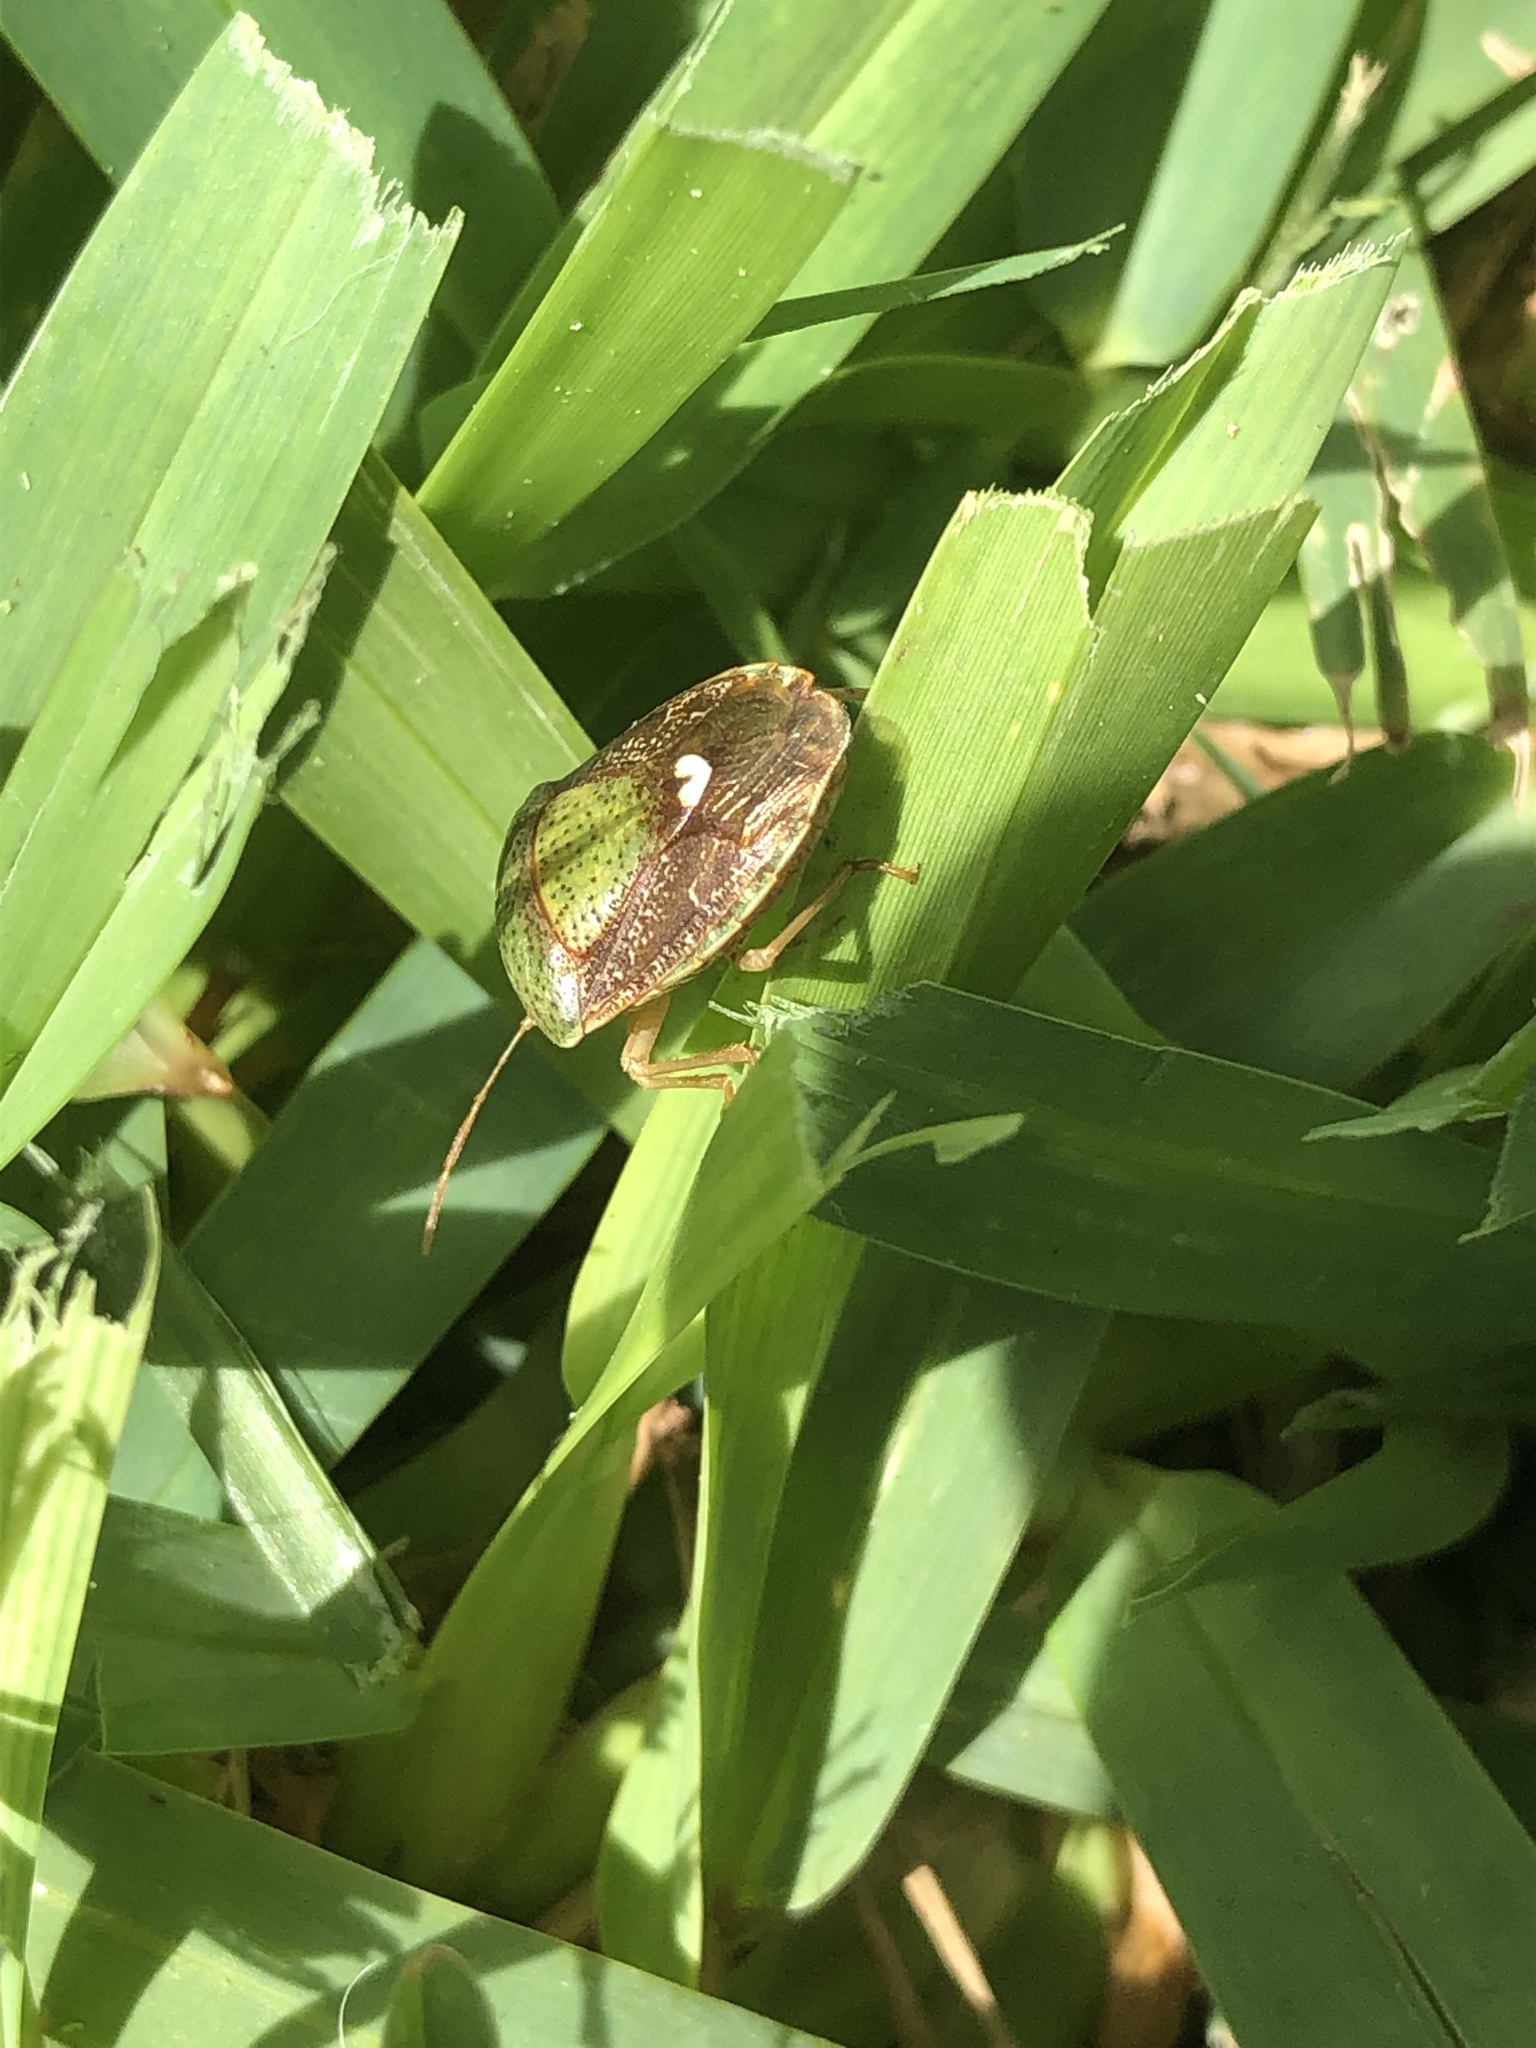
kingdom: Animalia
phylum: Arthropoda
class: Insecta
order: Hemiptera
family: Pentatomidae
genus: Edessa
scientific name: Edessa bifida
